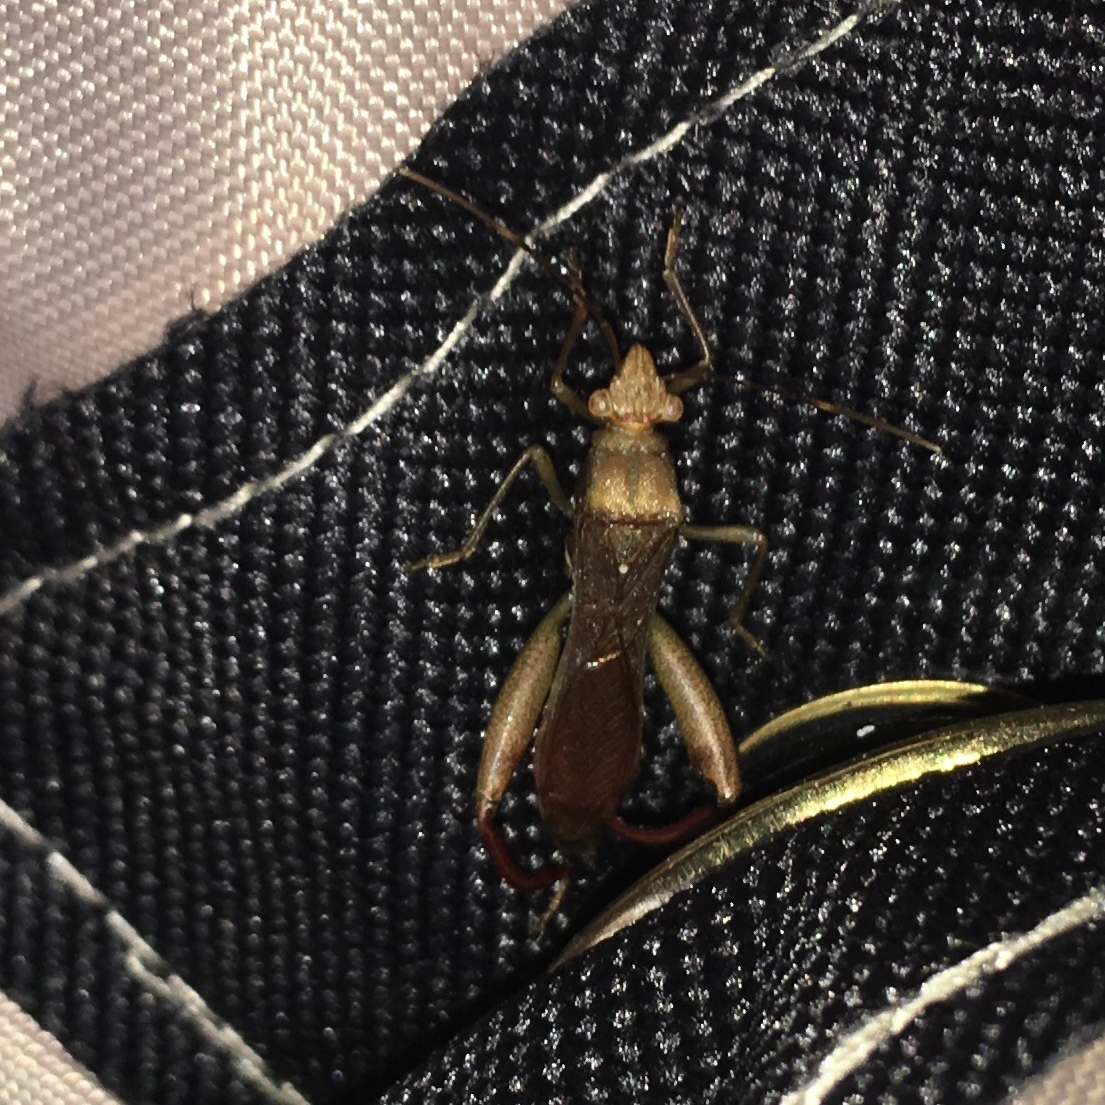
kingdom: Animalia
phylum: Arthropoda
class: Insecta
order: Hemiptera
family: Alydidae
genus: Hyalymenus
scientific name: Hyalymenus tarsatus
